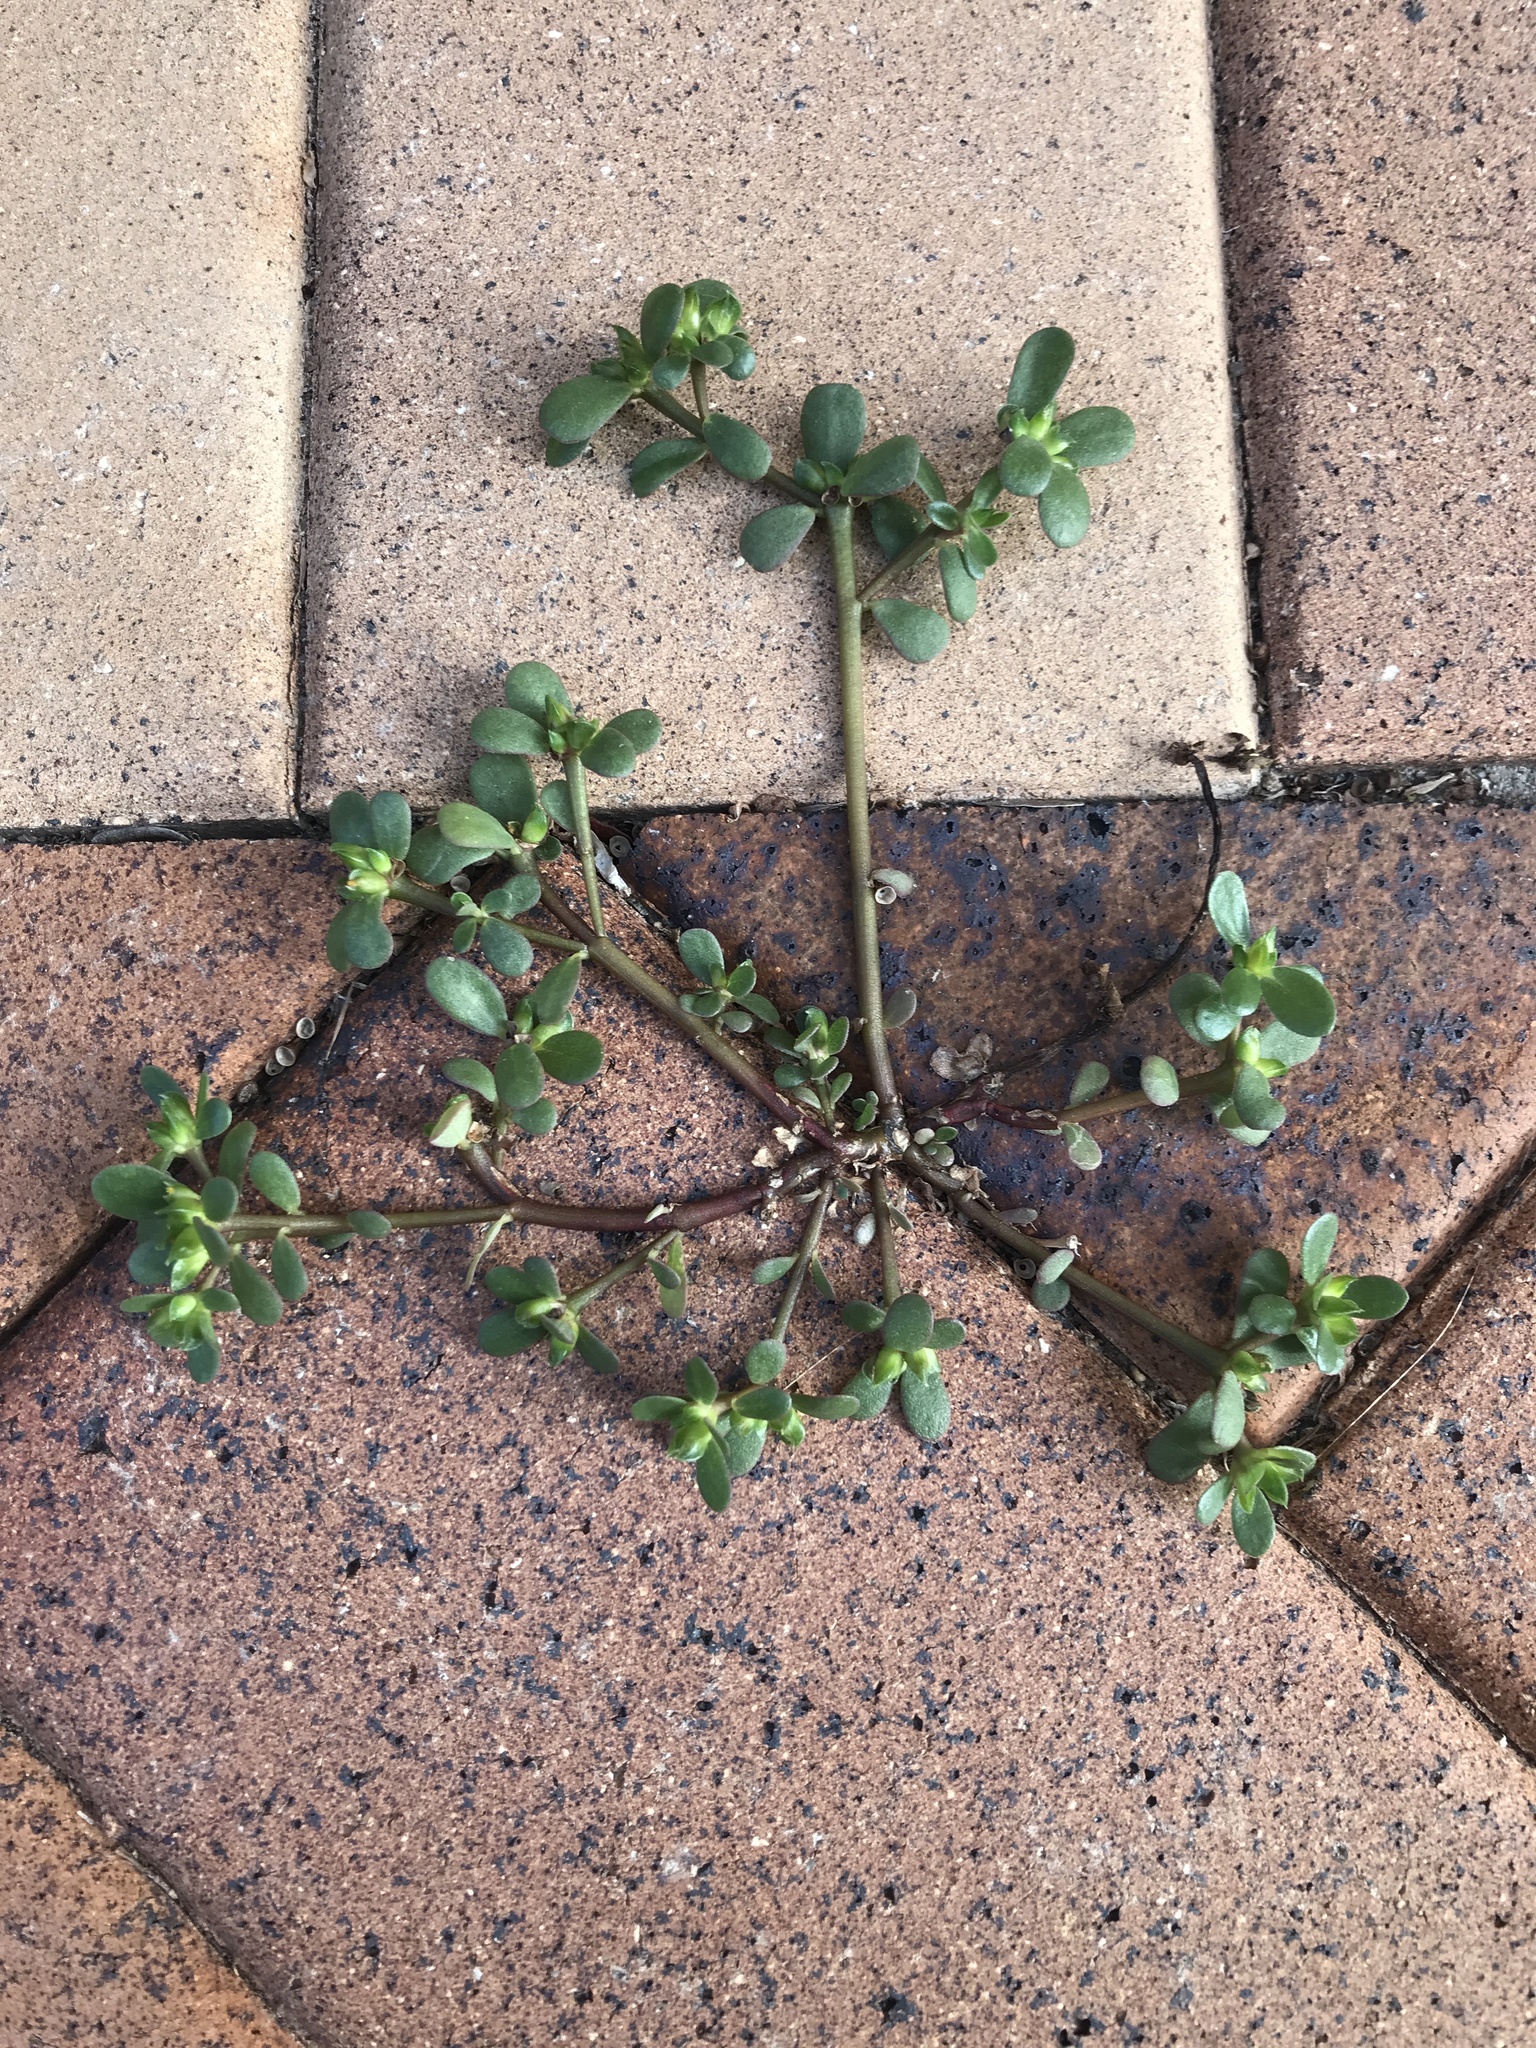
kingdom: Plantae
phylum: Tracheophyta
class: Magnoliopsida
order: Caryophyllales
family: Portulacaceae
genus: Portulaca
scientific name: Portulaca oleracea
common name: Common purslane
